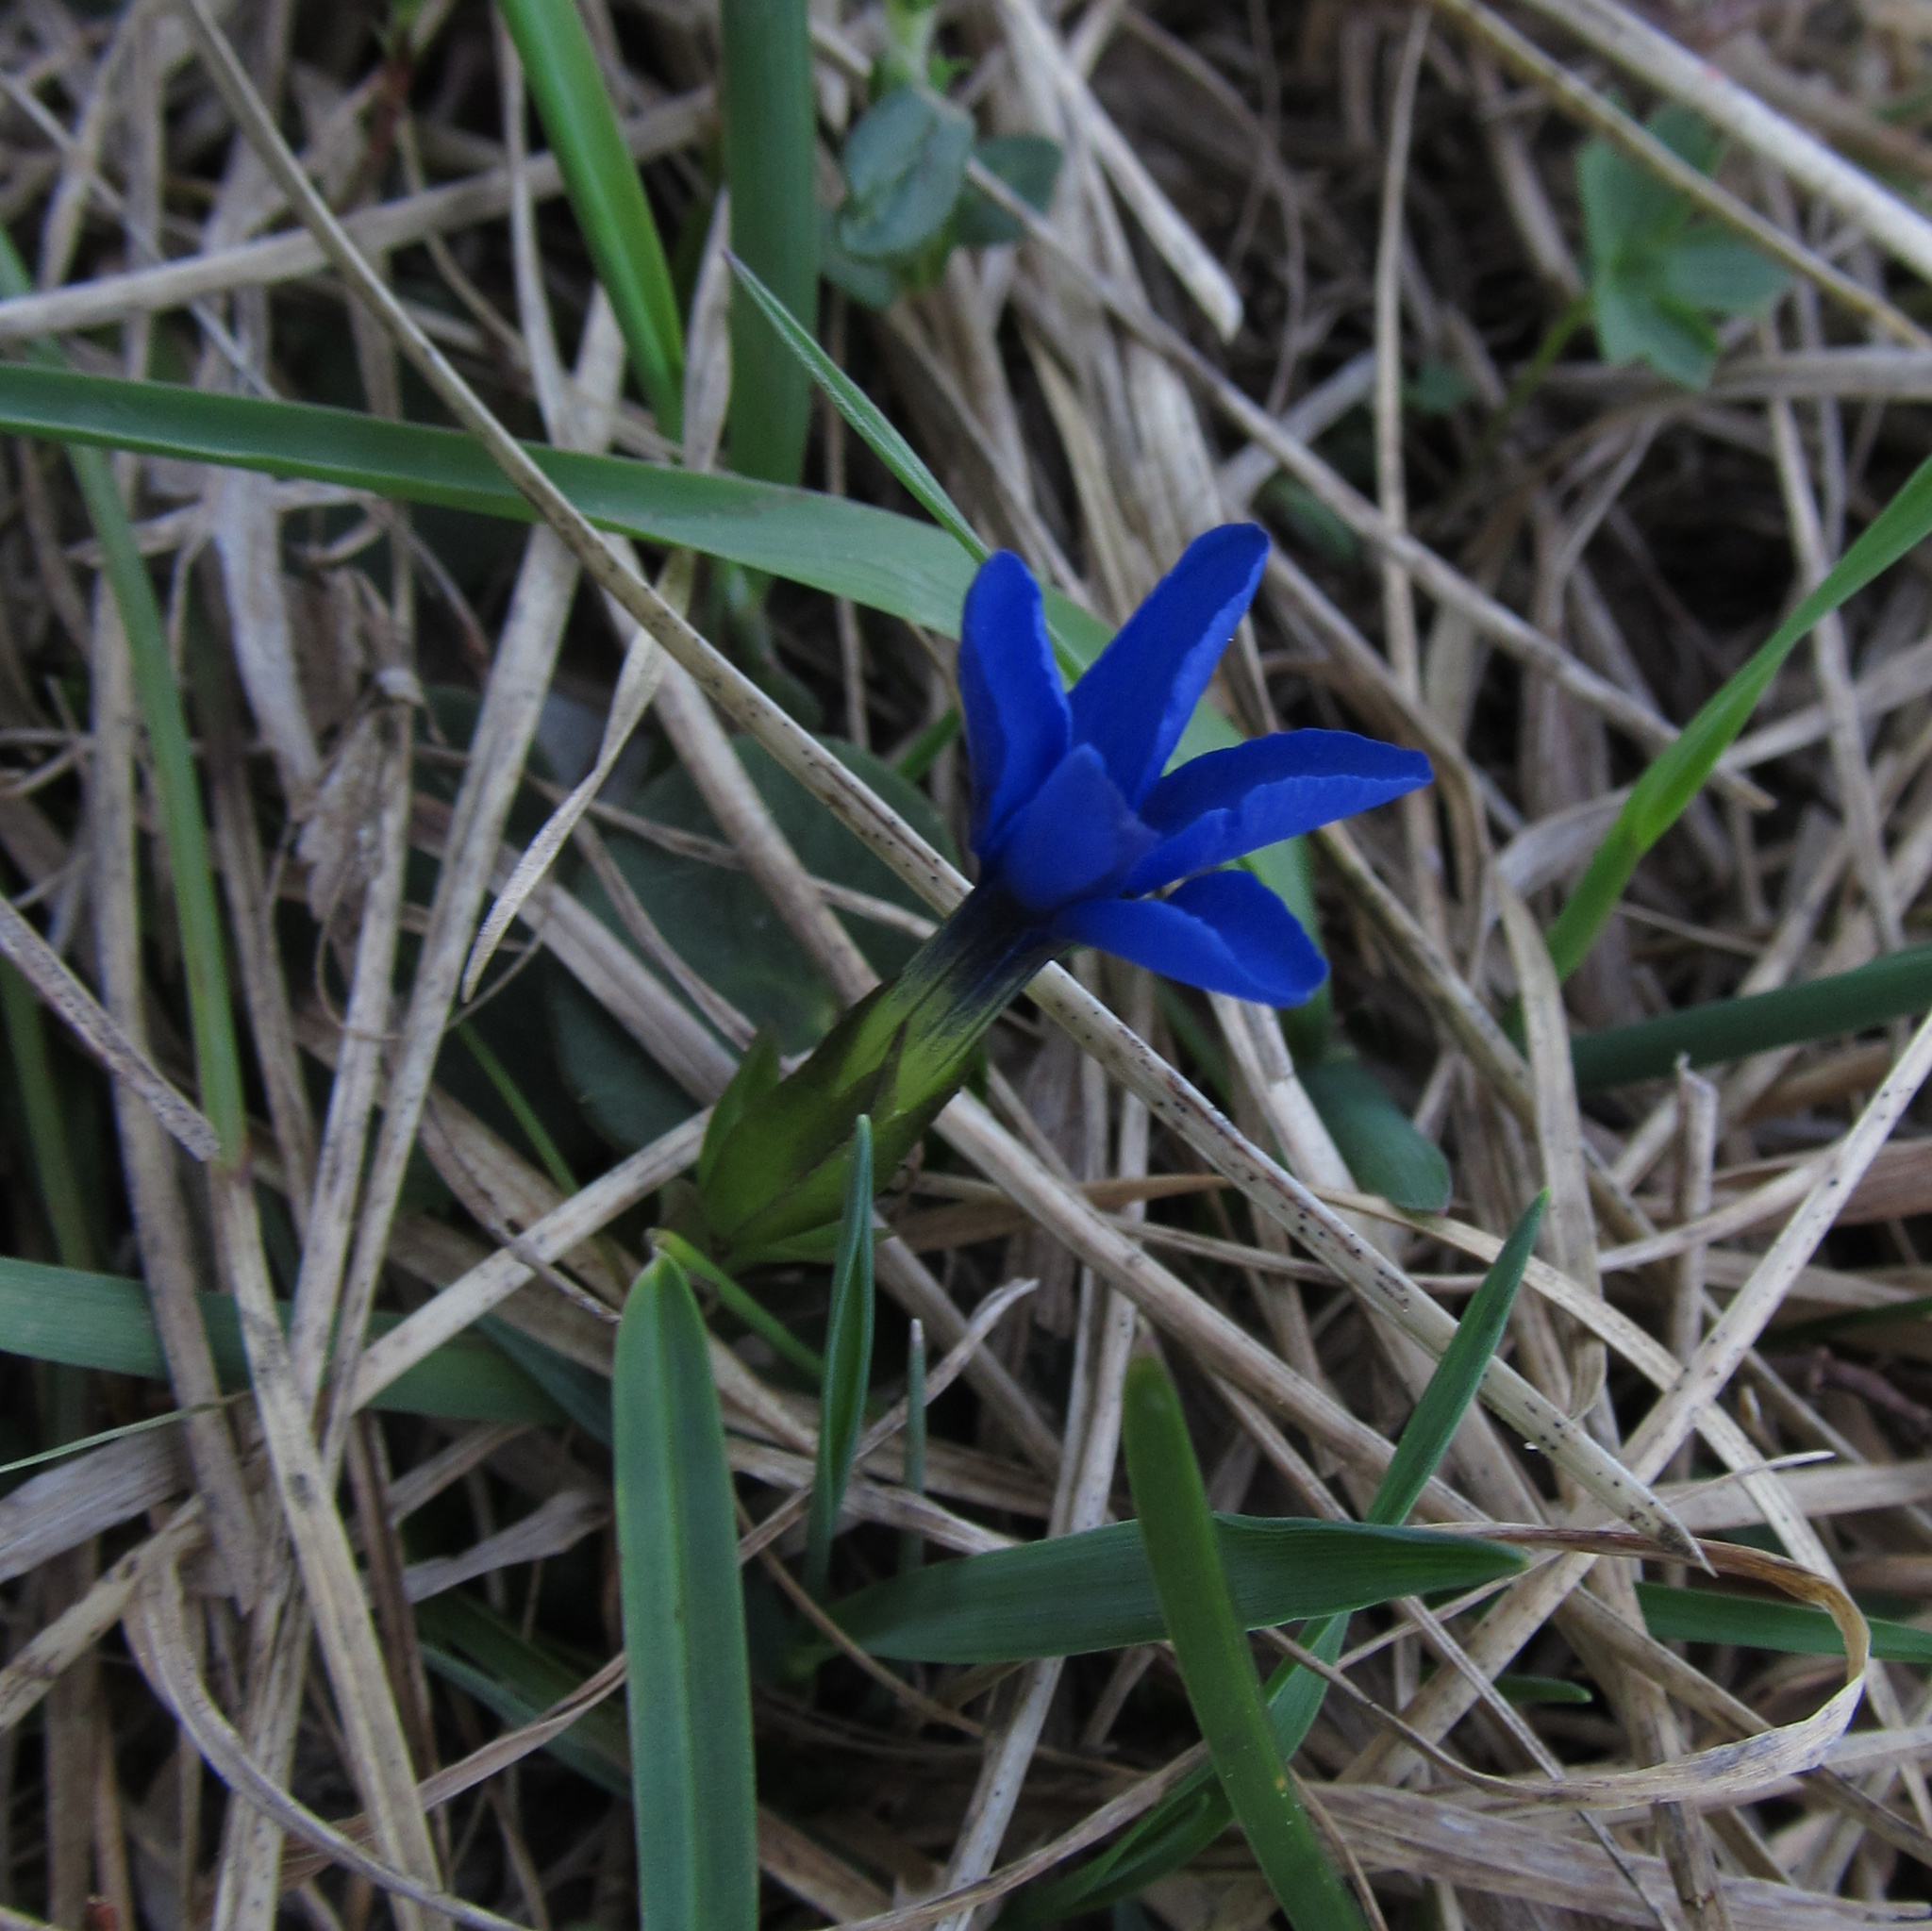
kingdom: Plantae
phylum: Tracheophyta
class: Magnoliopsida
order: Gentianales
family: Gentianaceae
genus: Gentiana
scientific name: Gentiana verna
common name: Spring gentian
